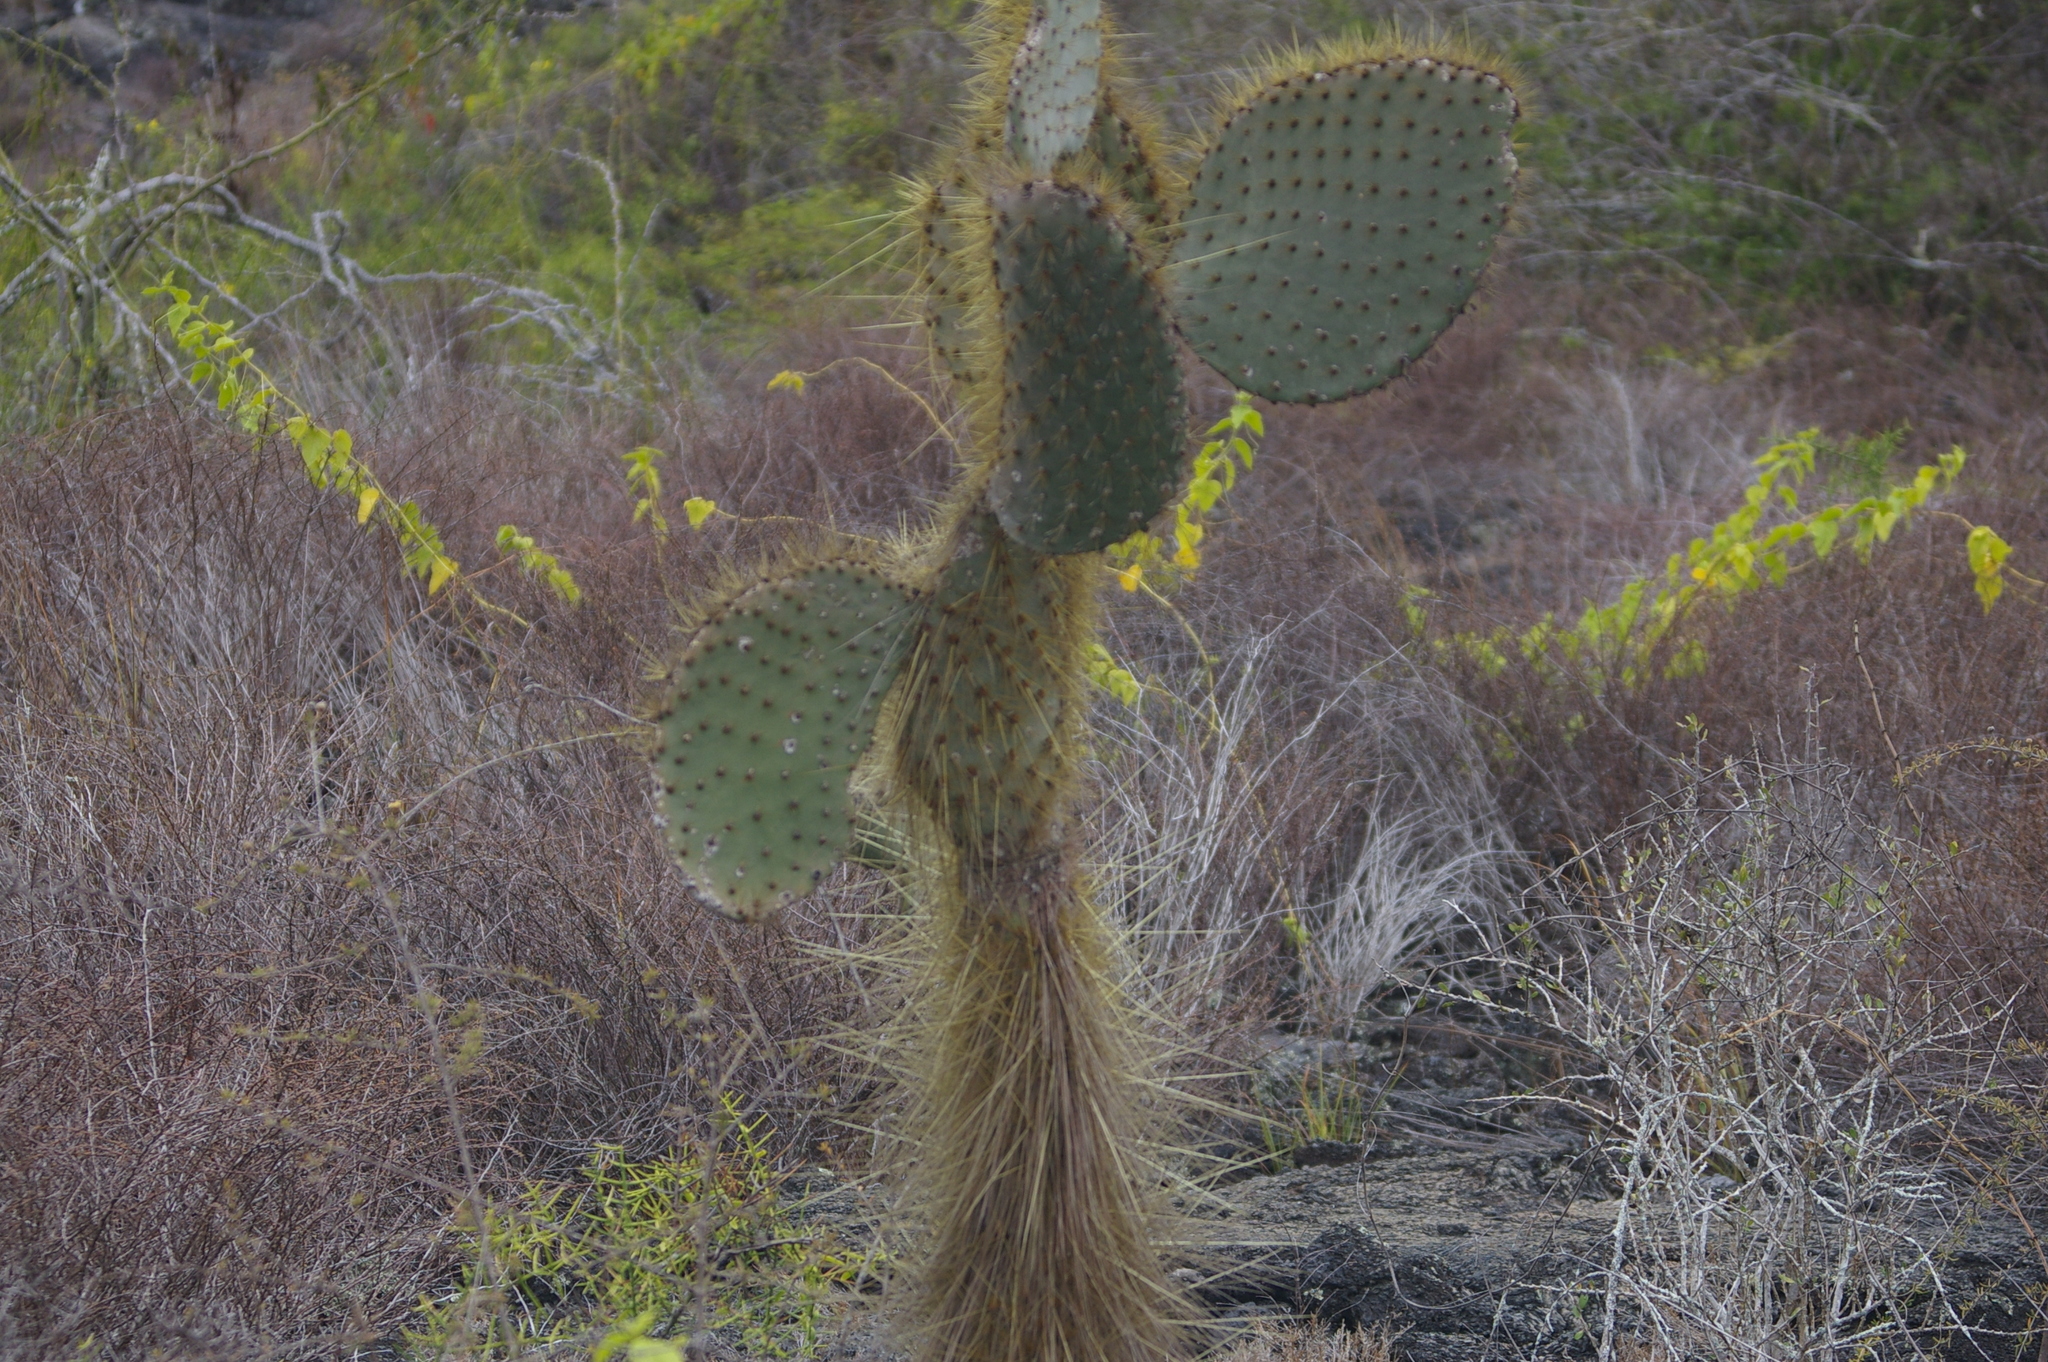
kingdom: Plantae
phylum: Tracheophyta
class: Magnoliopsida
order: Caryophyllales
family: Cactaceae
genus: Opuntia
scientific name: Opuntia galapageia
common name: Galápagos prickly pear
